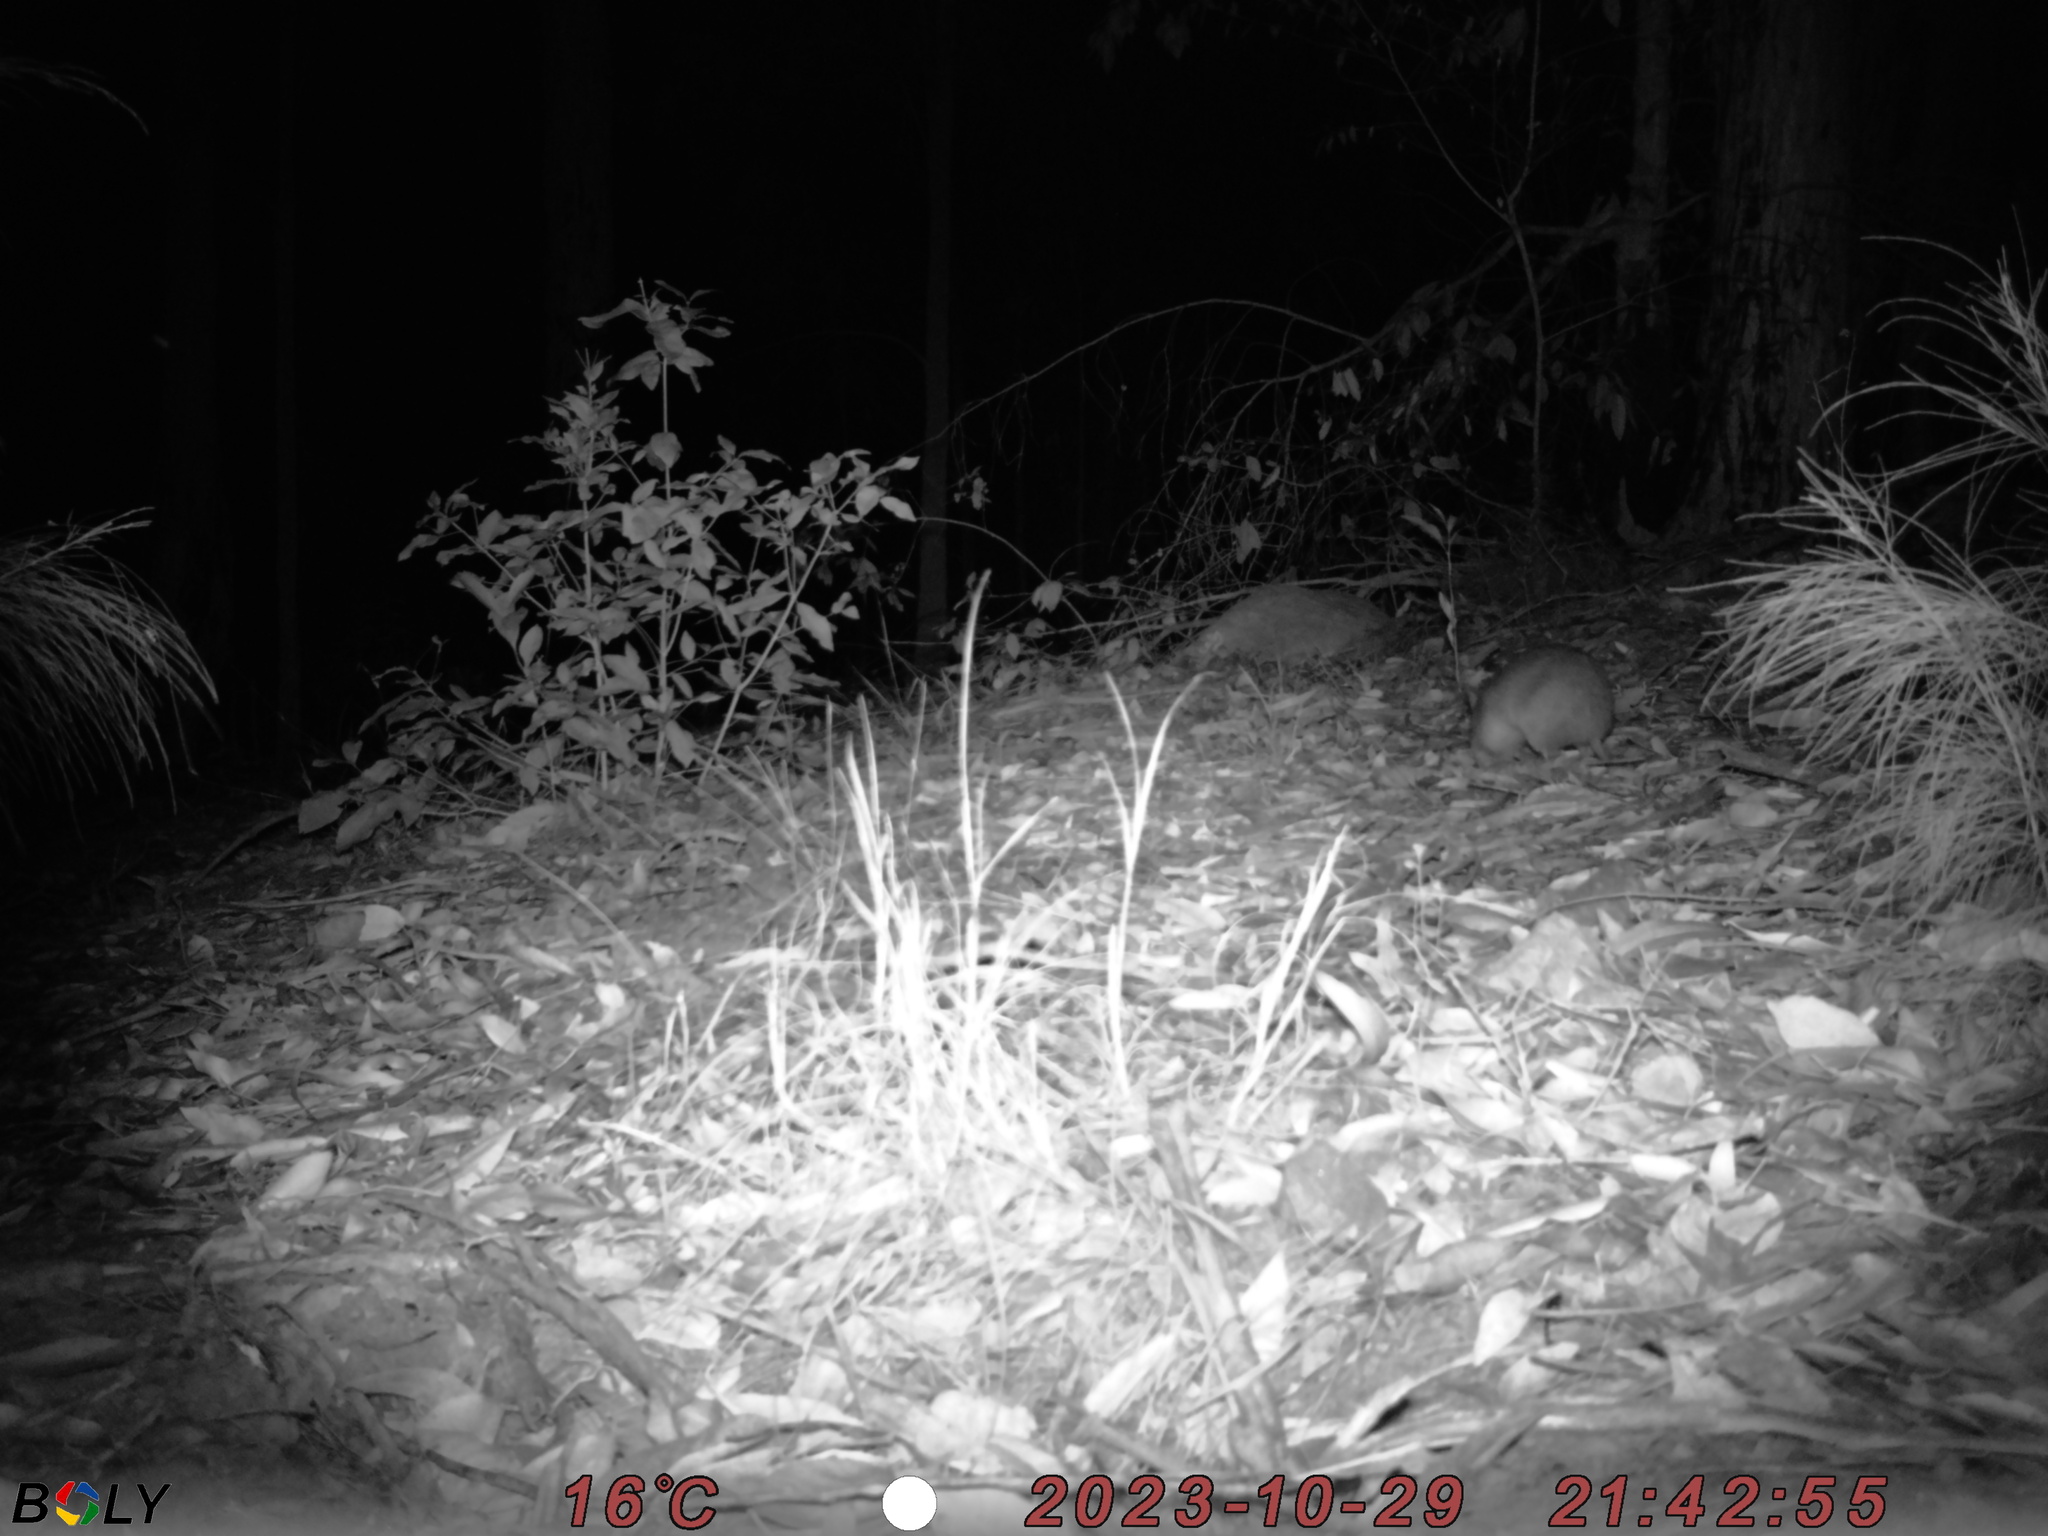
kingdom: Animalia
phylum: Chordata
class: Mammalia
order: Peramelemorphia
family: Peramelidae
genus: Perameles
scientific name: Perameles nasuta
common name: Long-nosed bandicoot
